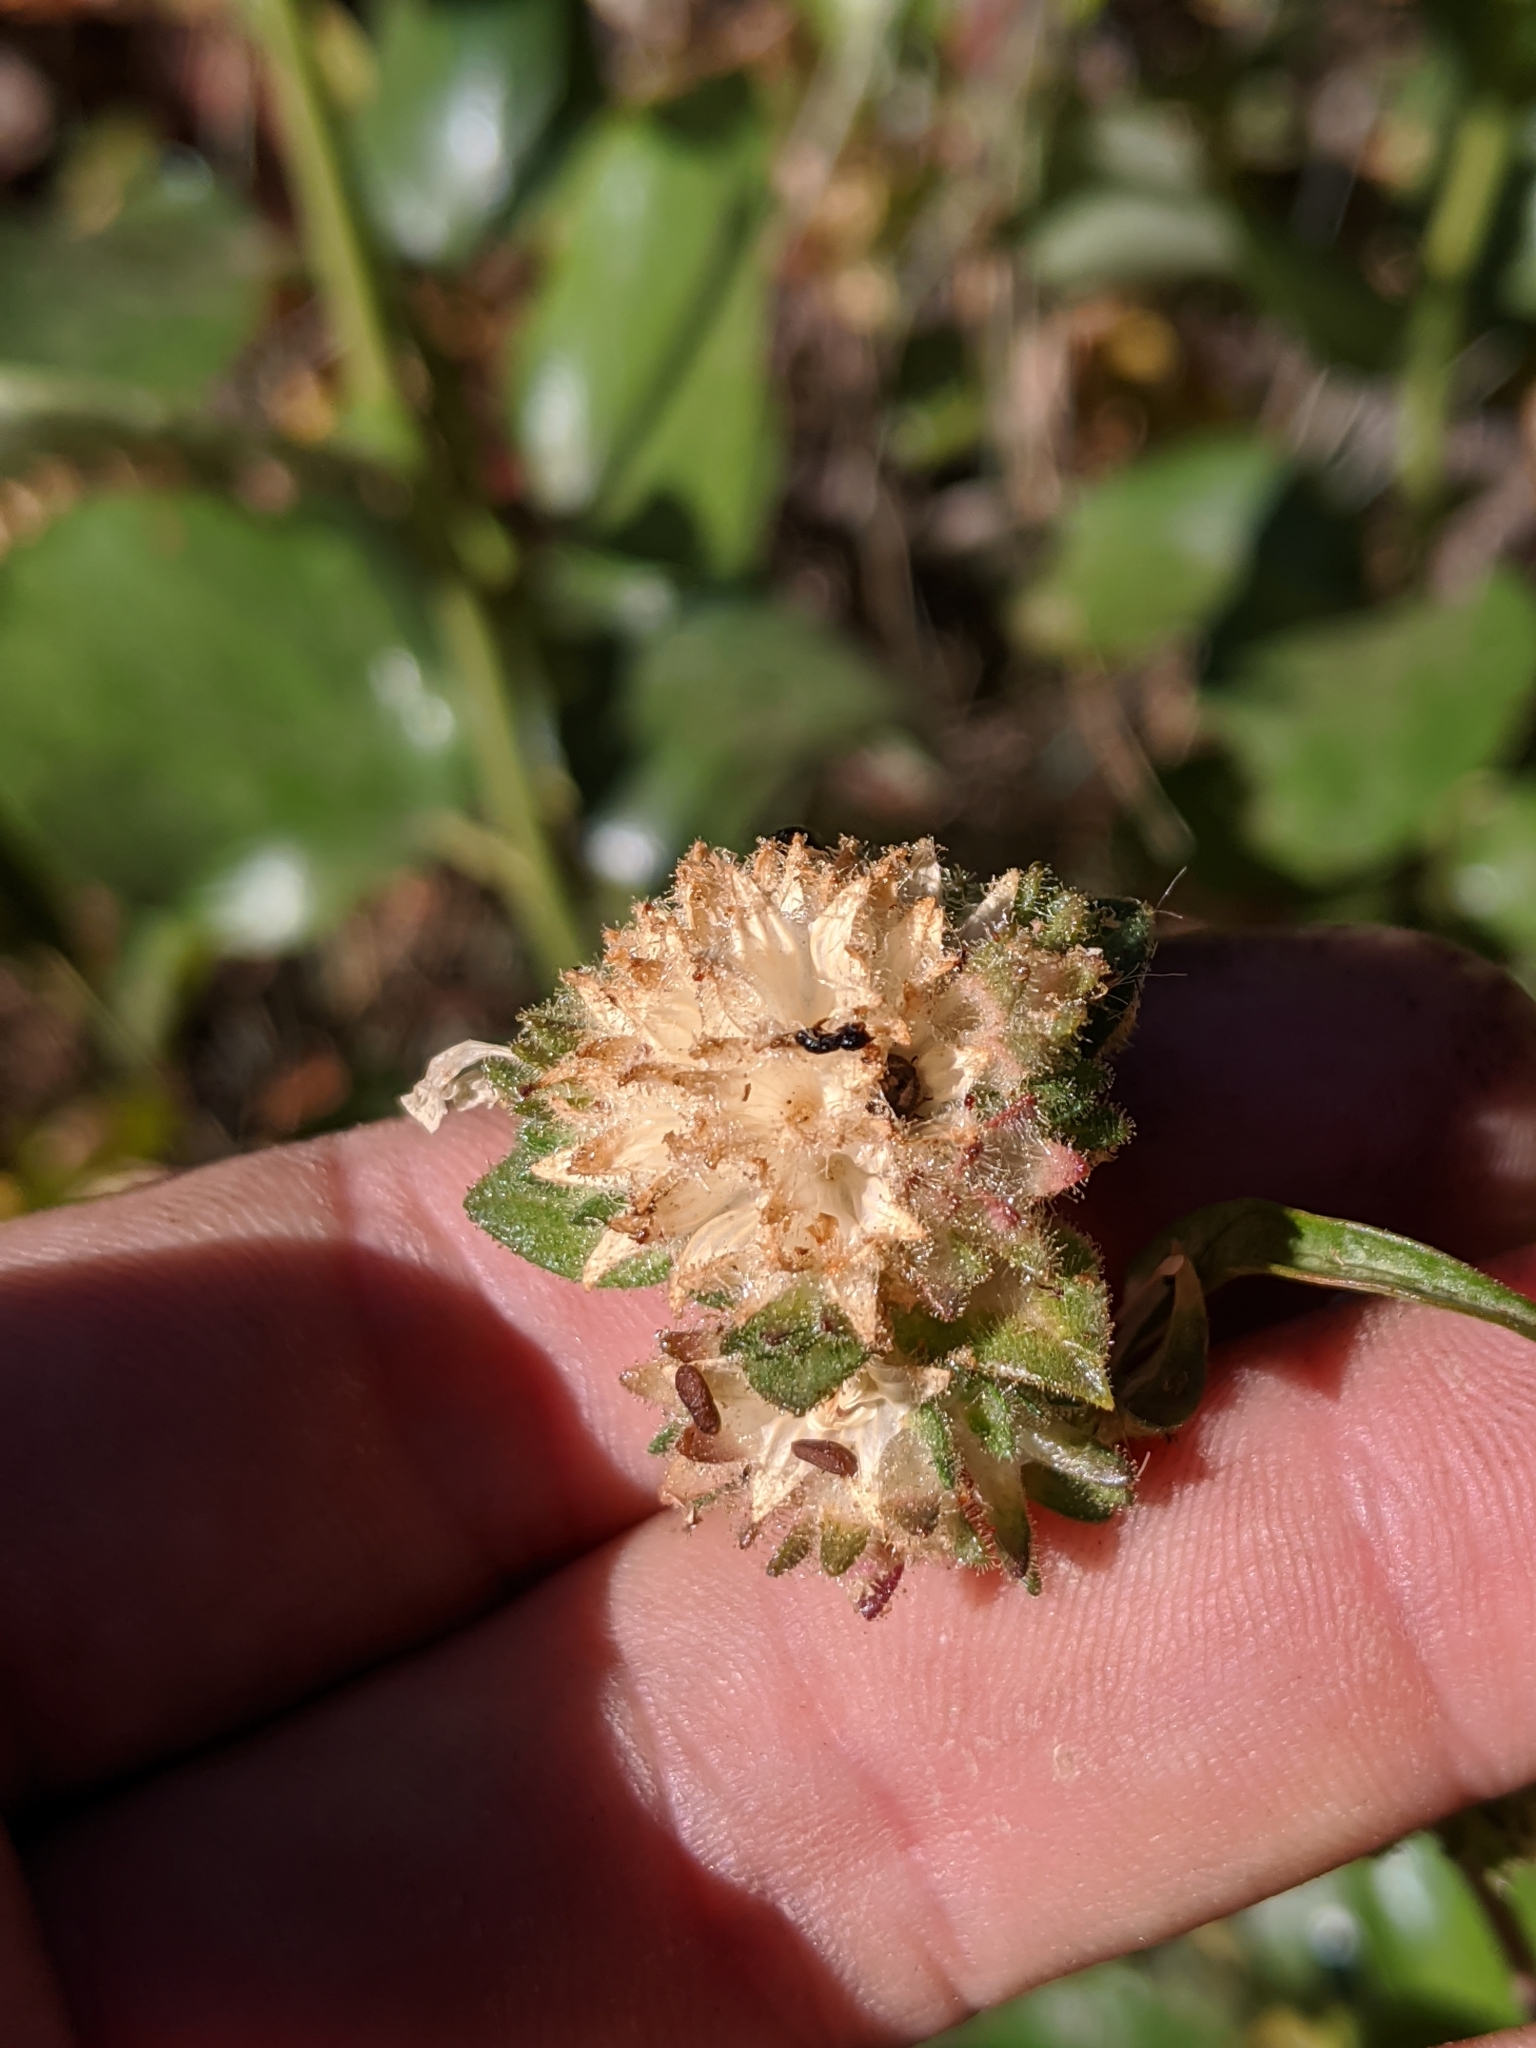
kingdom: Plantae
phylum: Tracheophyta
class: Magnoliopsida
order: Ericales
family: Polemoniaceae
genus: Collomia
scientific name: Collomia grandiflora
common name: California strawflower
